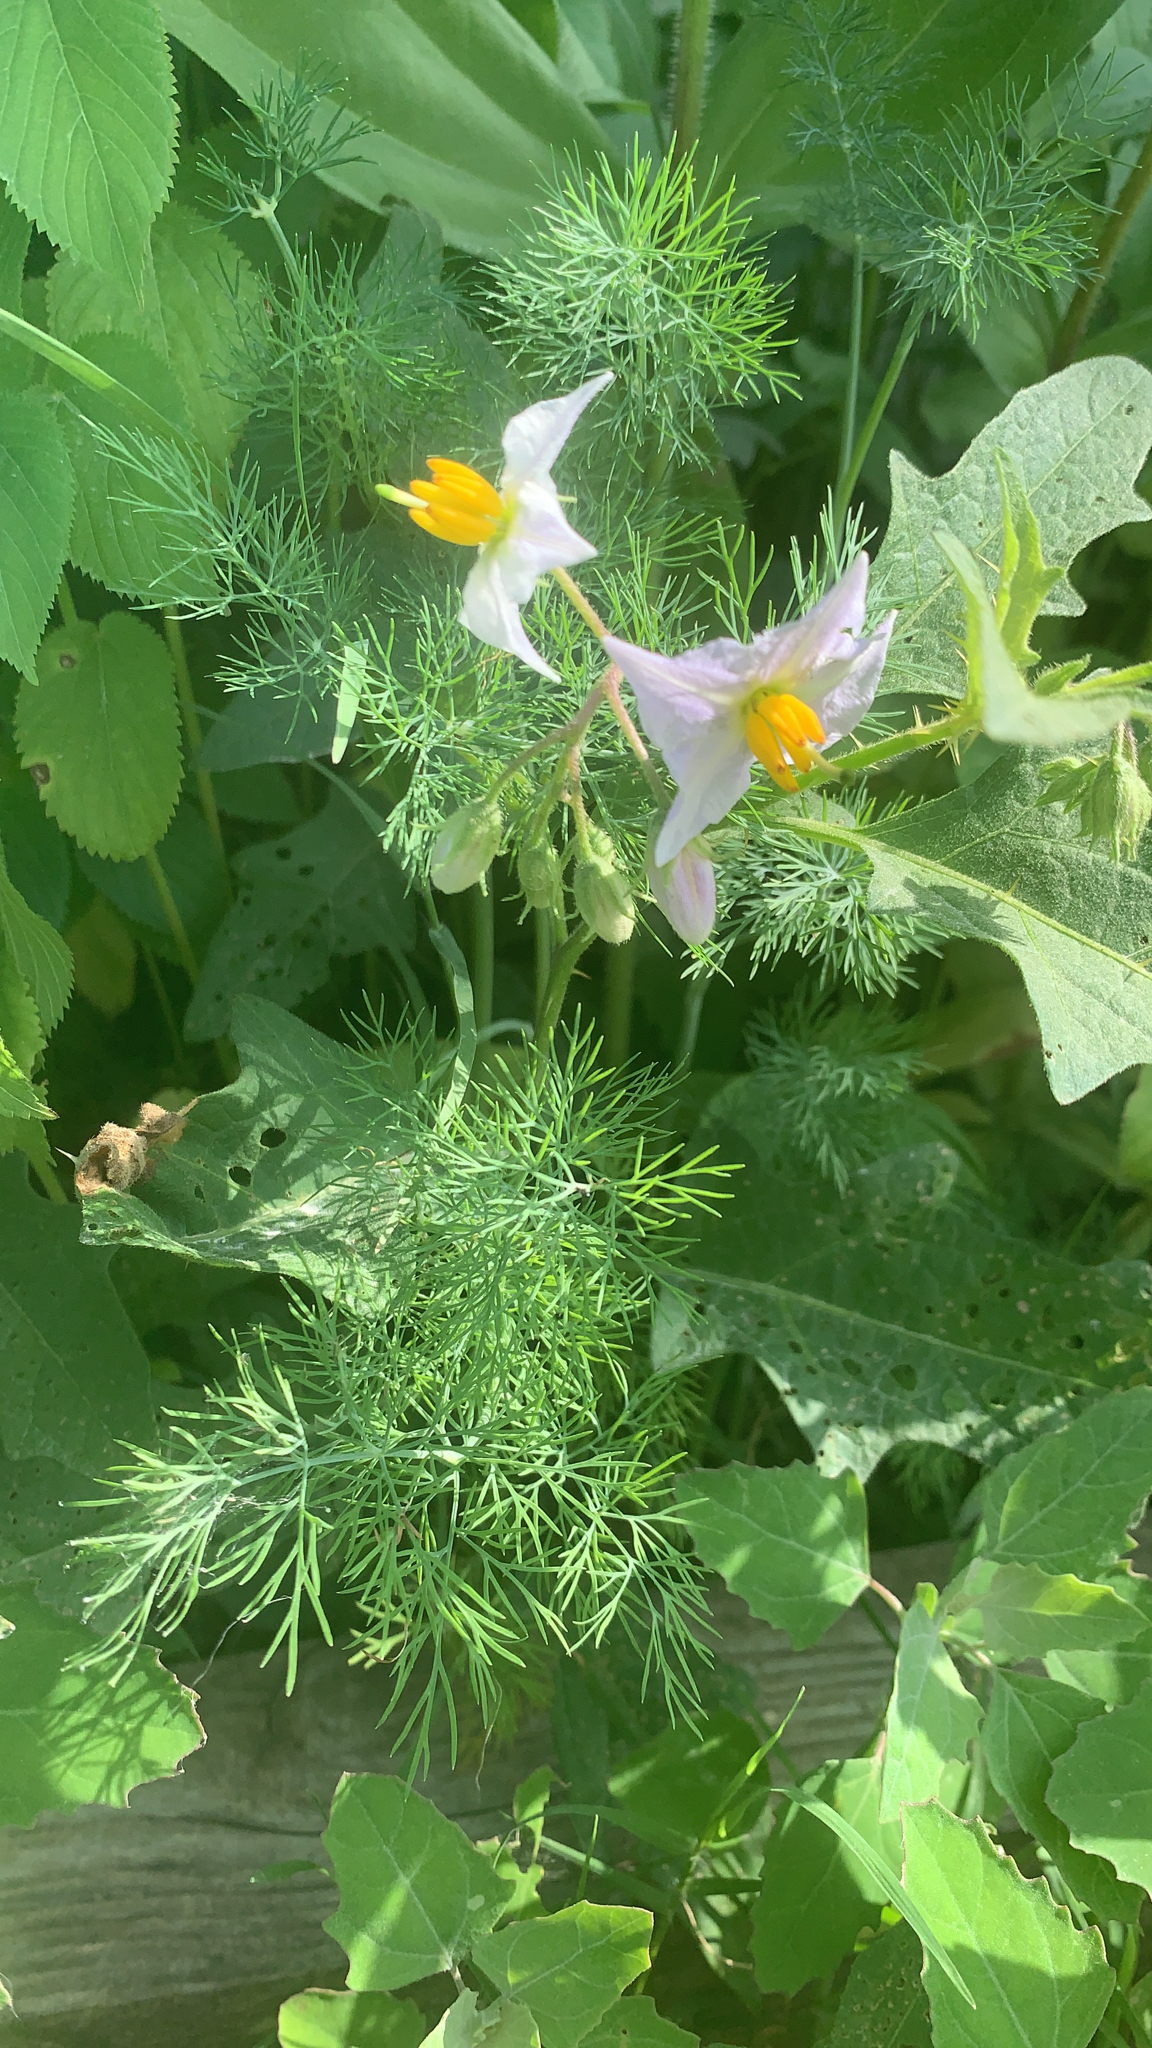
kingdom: Plantae
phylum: Tracheophyta
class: Magnoliopsida
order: Solanales
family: Solanaceae
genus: Solanum
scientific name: Solanum carolinense
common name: Horse-nettle
